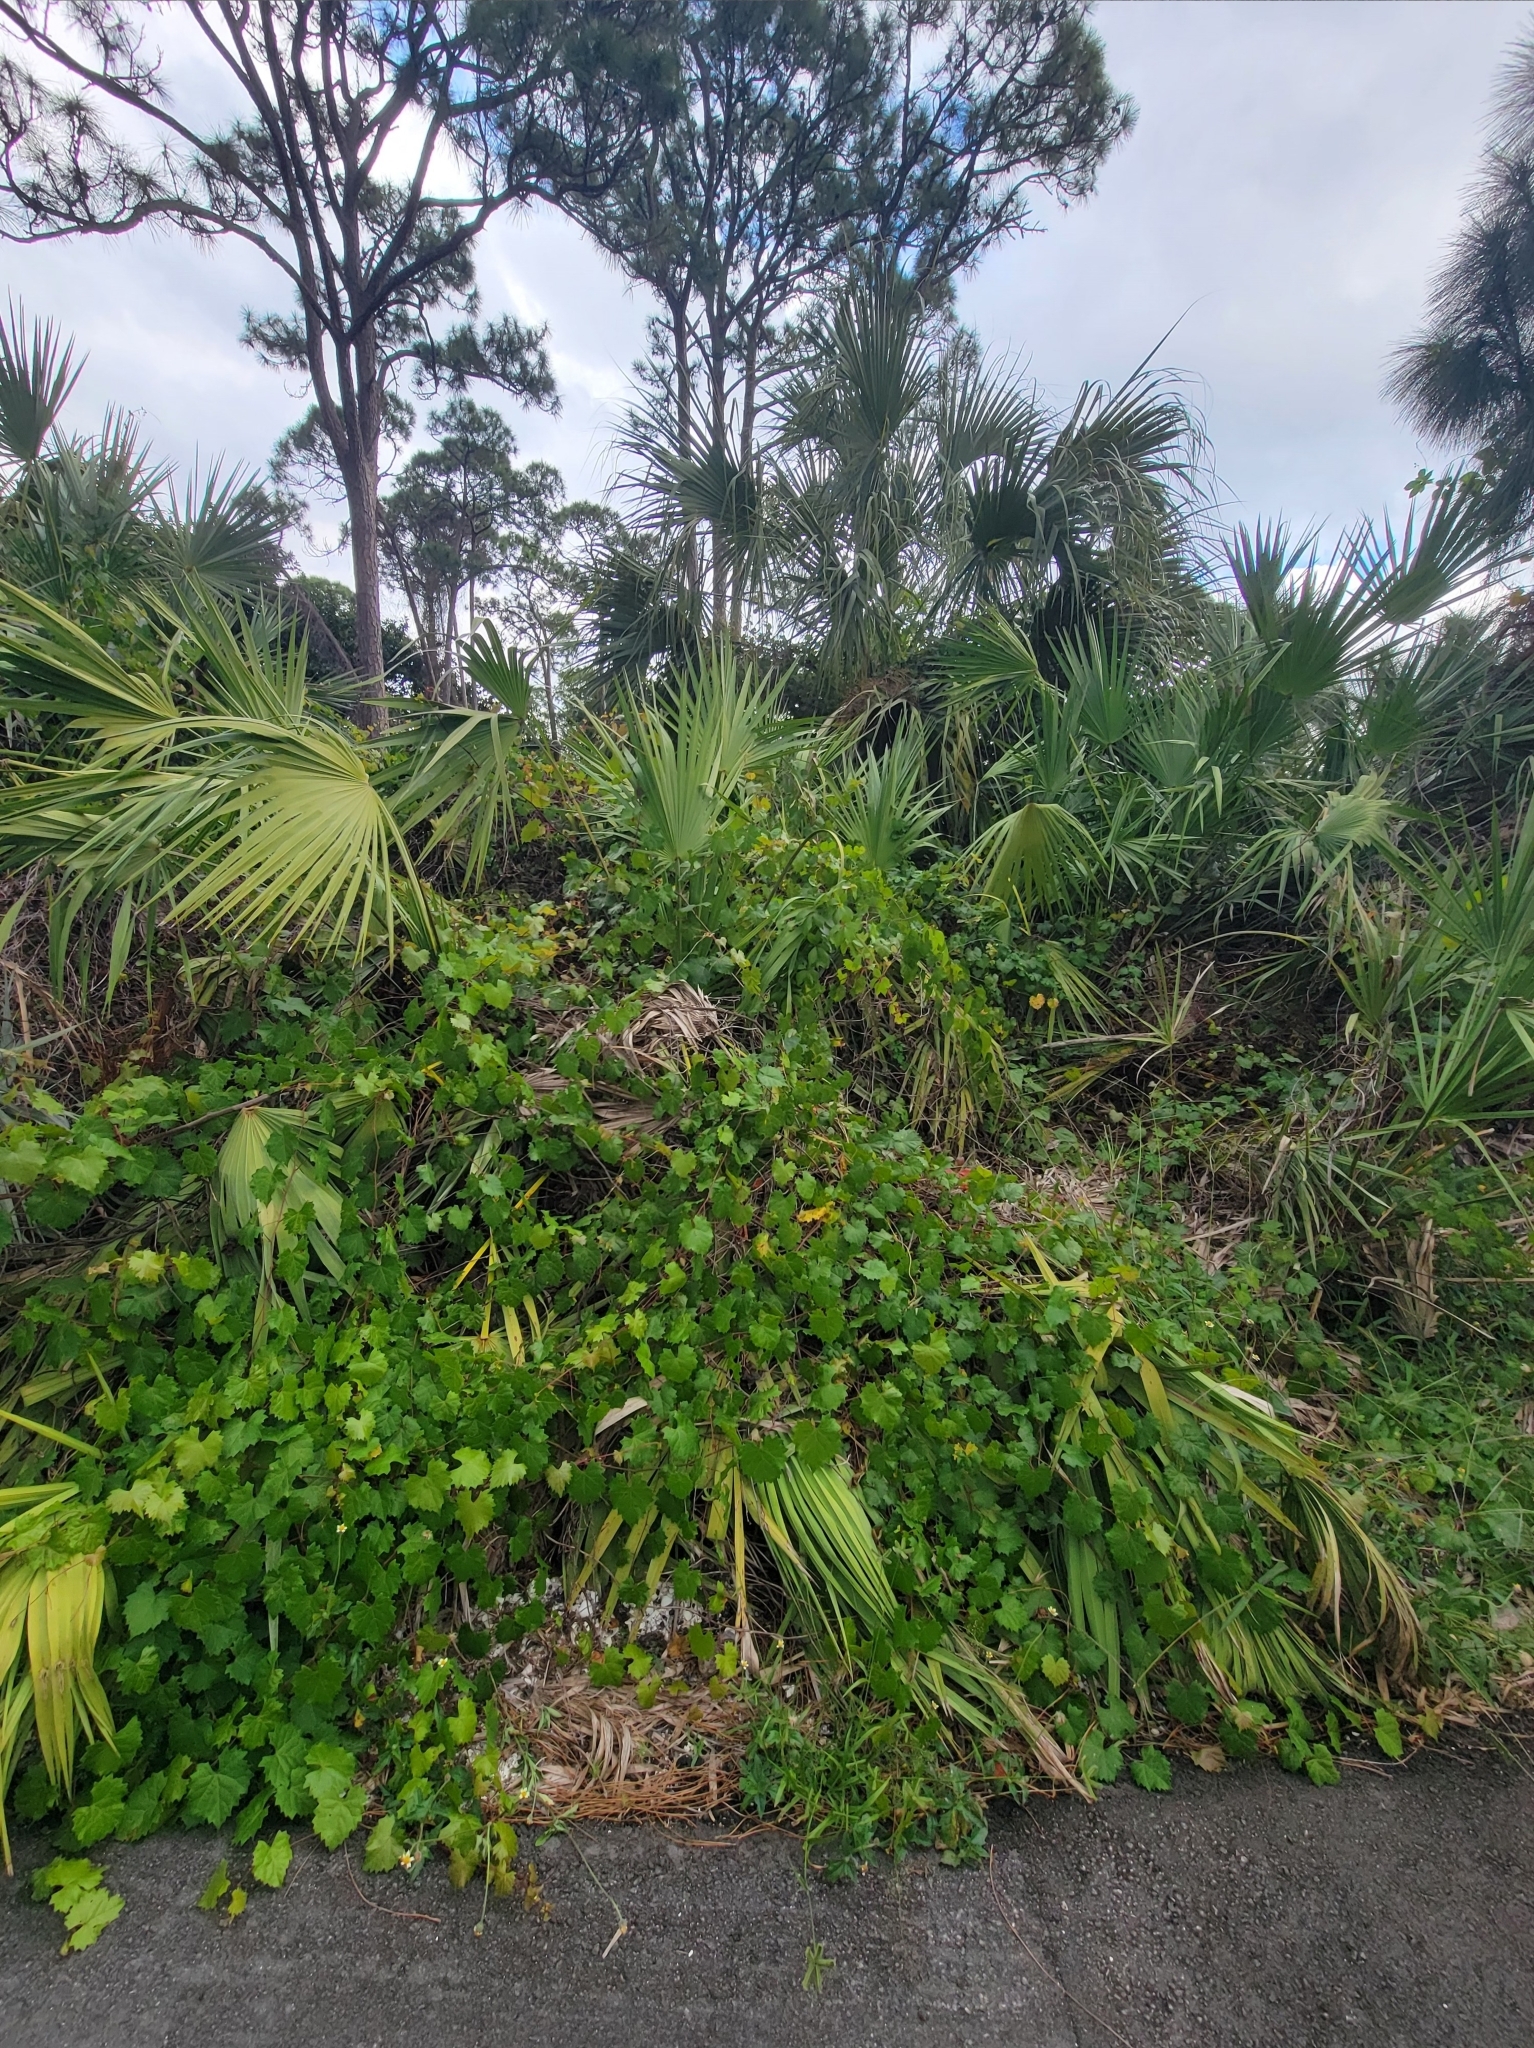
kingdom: Plantae
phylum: Tracheophyta
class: Magnoliopsida
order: Vitales
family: Vitaceae
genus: Vitis
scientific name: Vitis rotundifolia
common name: Muscadine grape
